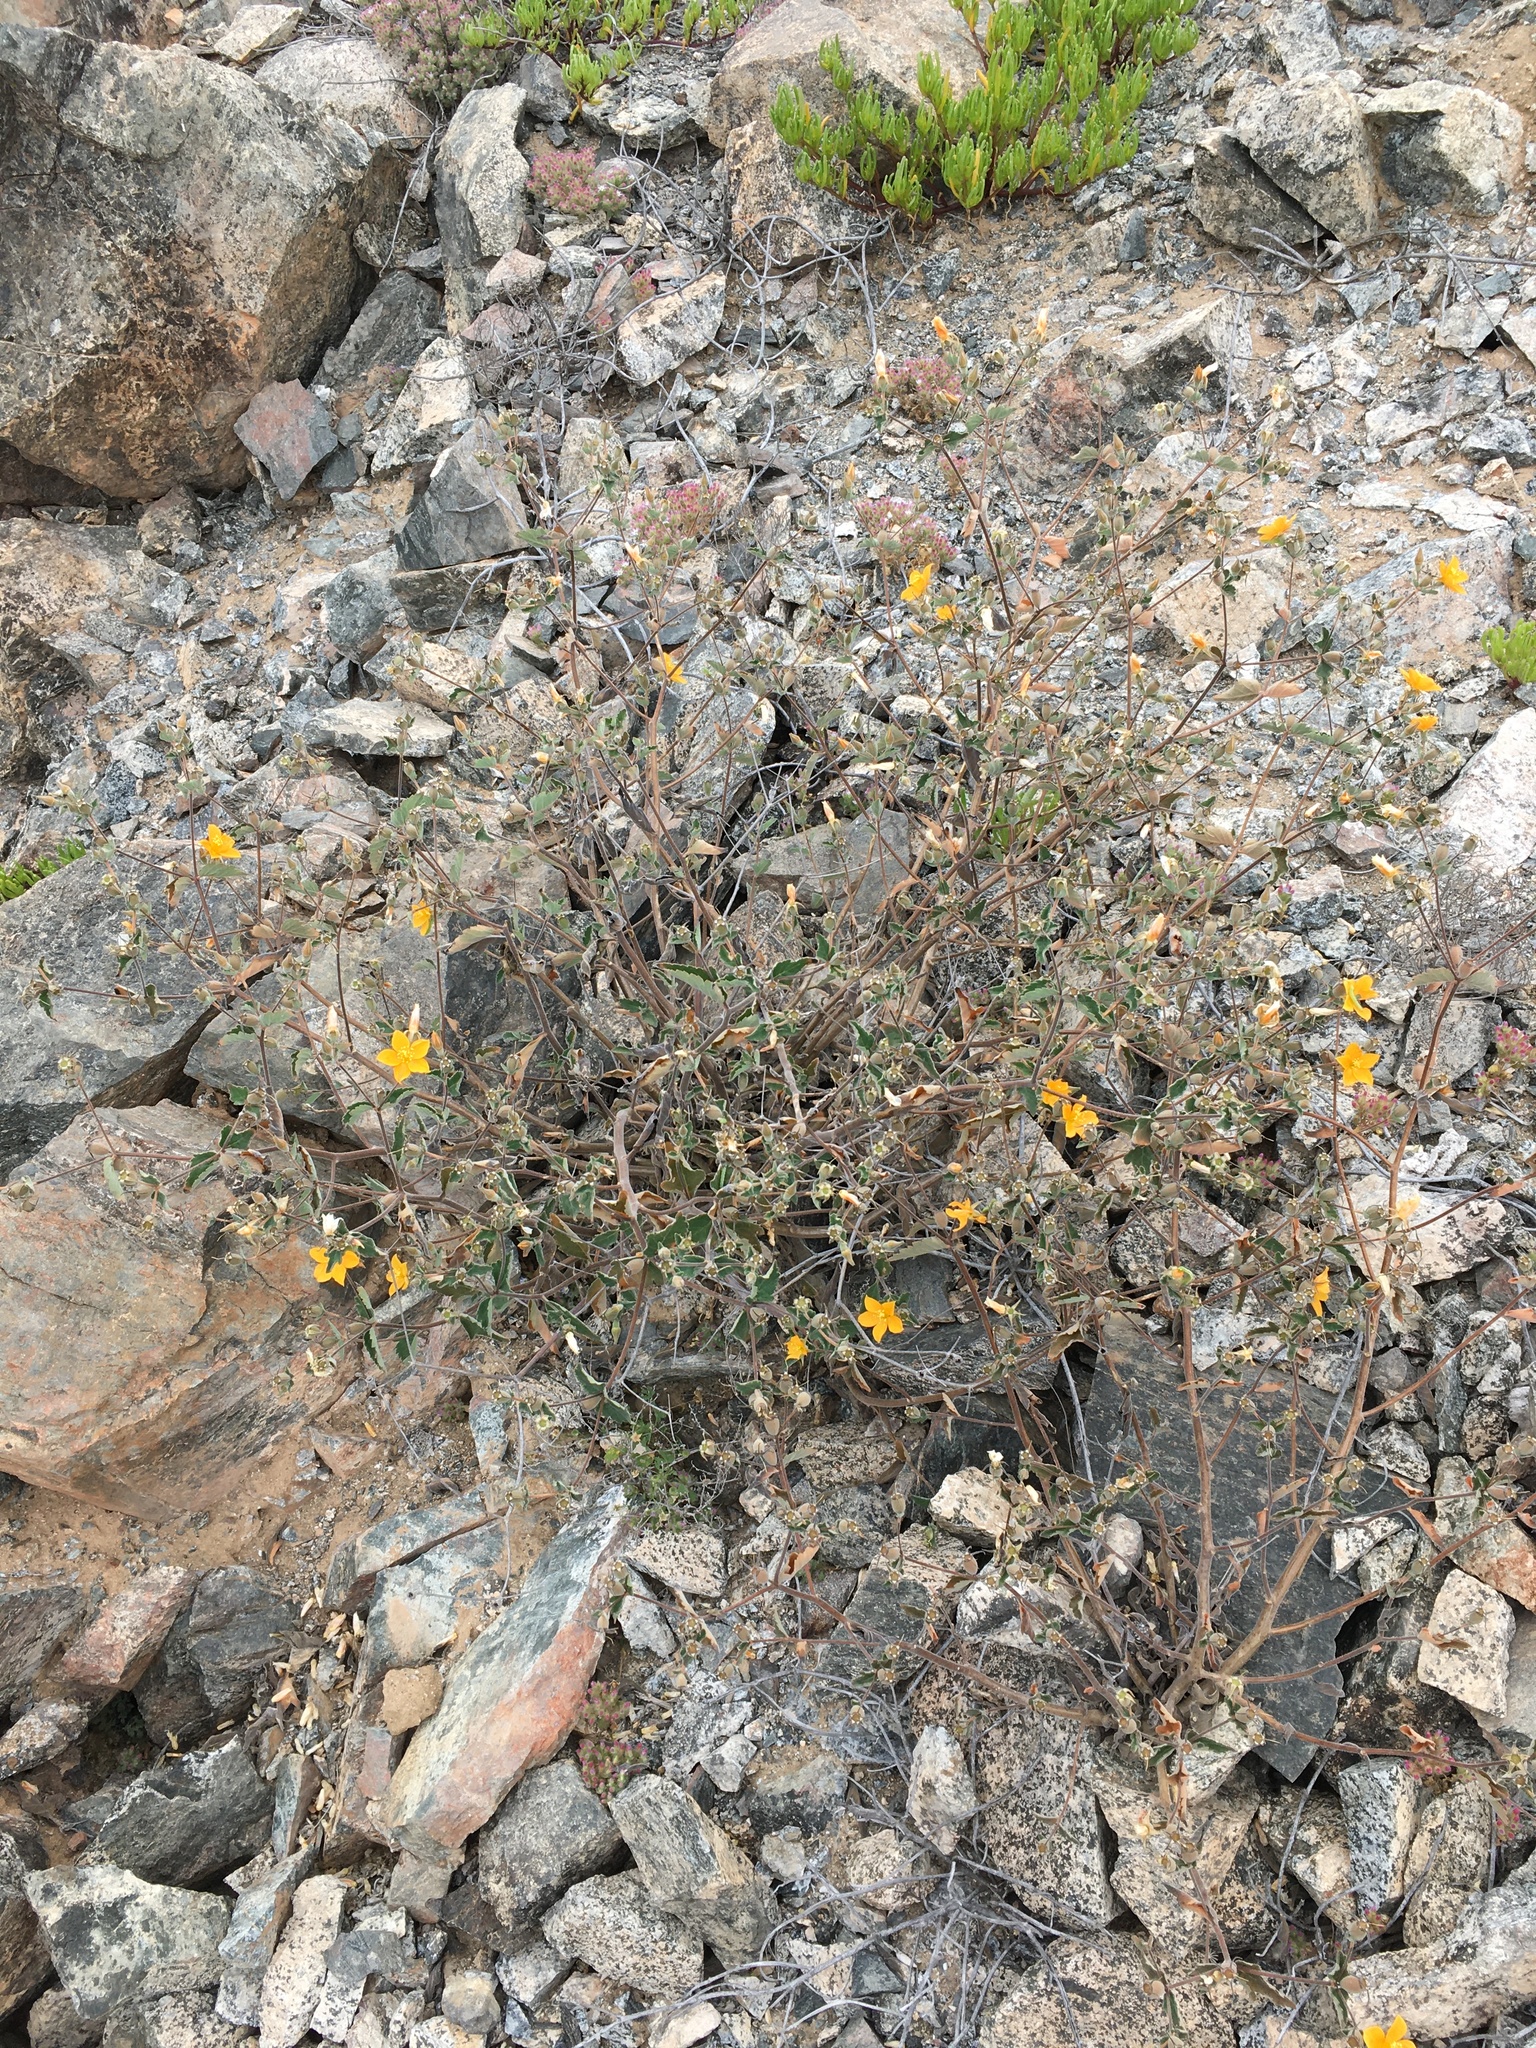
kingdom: Plantae
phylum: Tracheophyta
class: Magnoliopsida
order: Cornales
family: Loasaceae
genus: Mentzelia
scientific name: Mentzelia scabra
